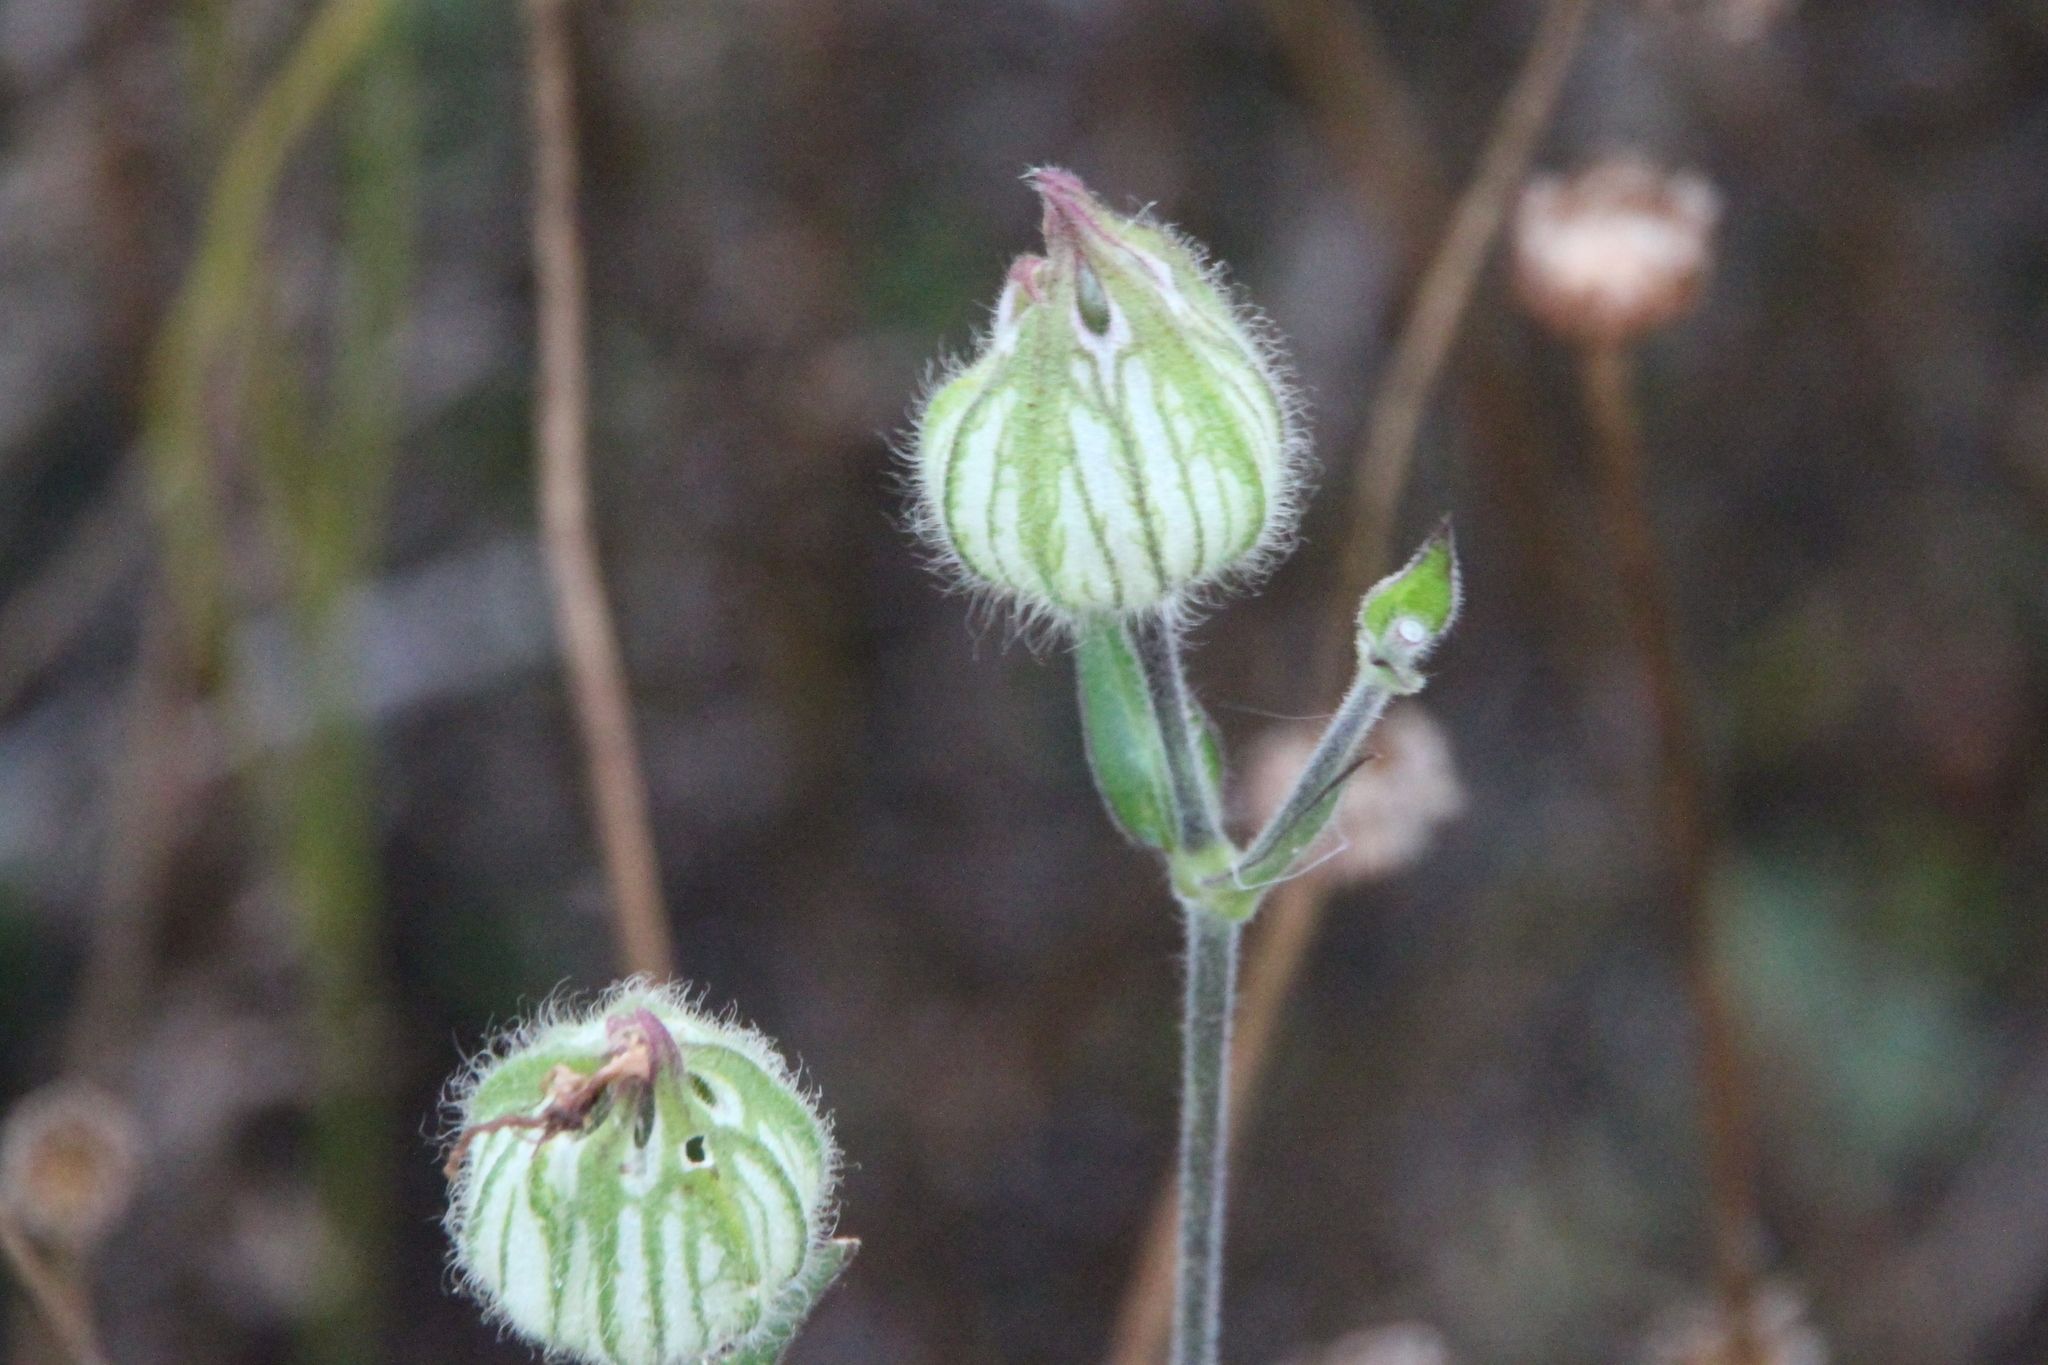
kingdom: Plantae
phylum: Tracheophyta
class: Magnoliopsida
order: Caryophyllales
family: Caryophyllaceae
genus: Silene
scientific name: Silene latifolia
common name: White campion
